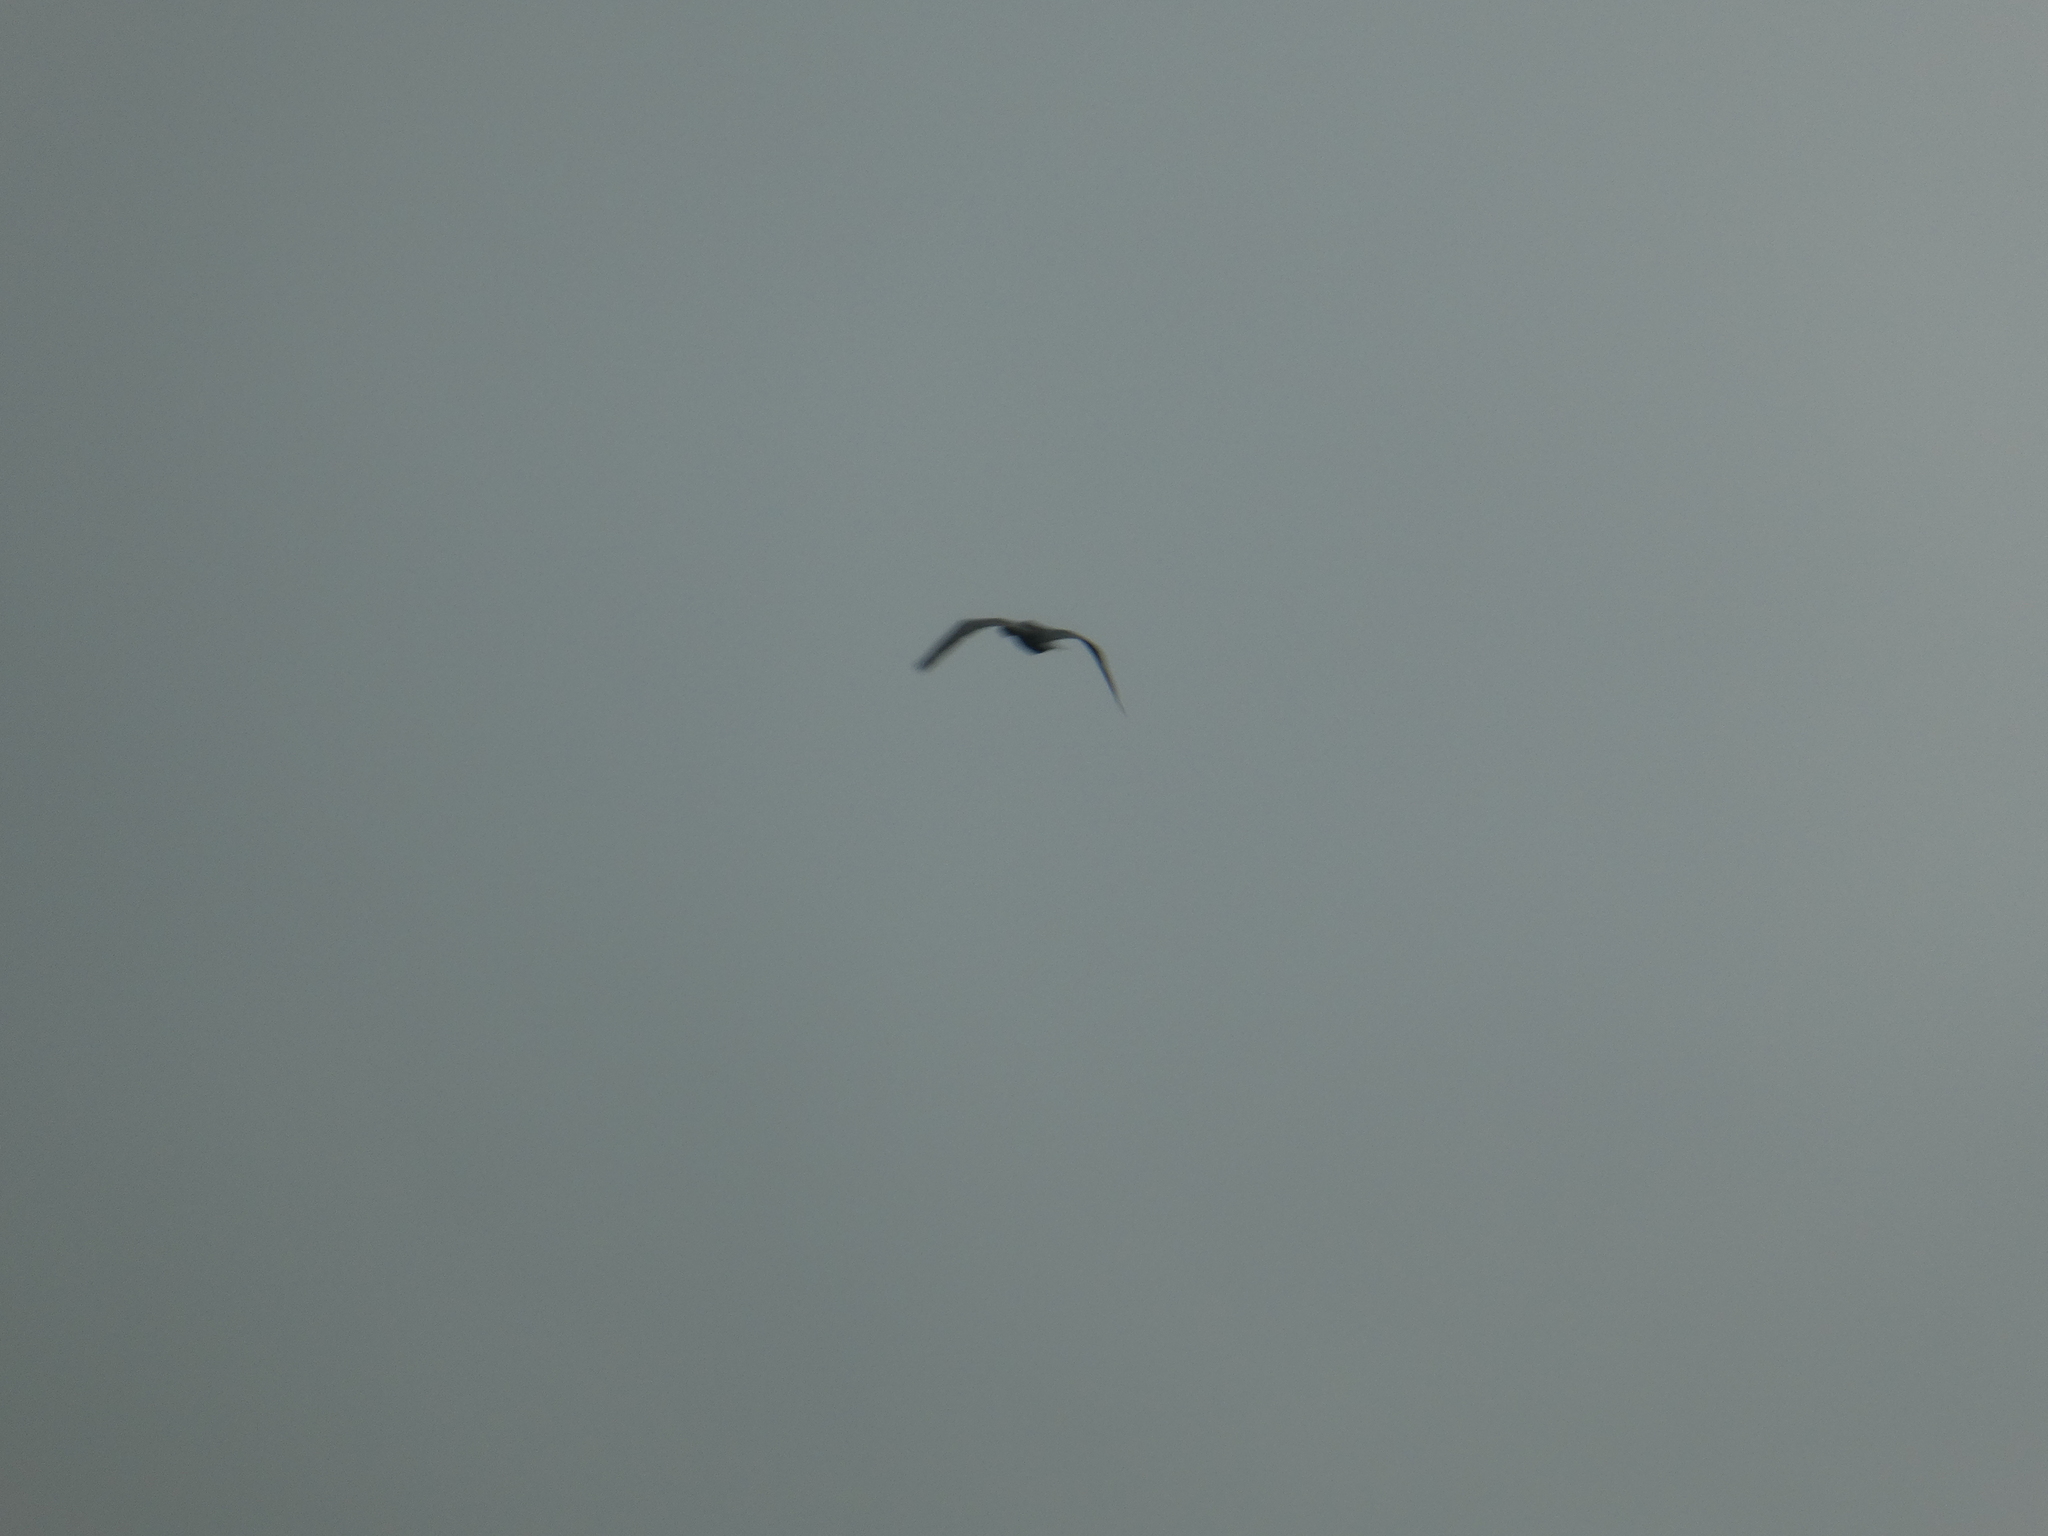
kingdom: Animalia
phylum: Chordata
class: Aves
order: Suliformes
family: Phalacrocoracidae
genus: Phalacrocorax
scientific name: Phalacrocorax carbo
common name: Great cormorant
